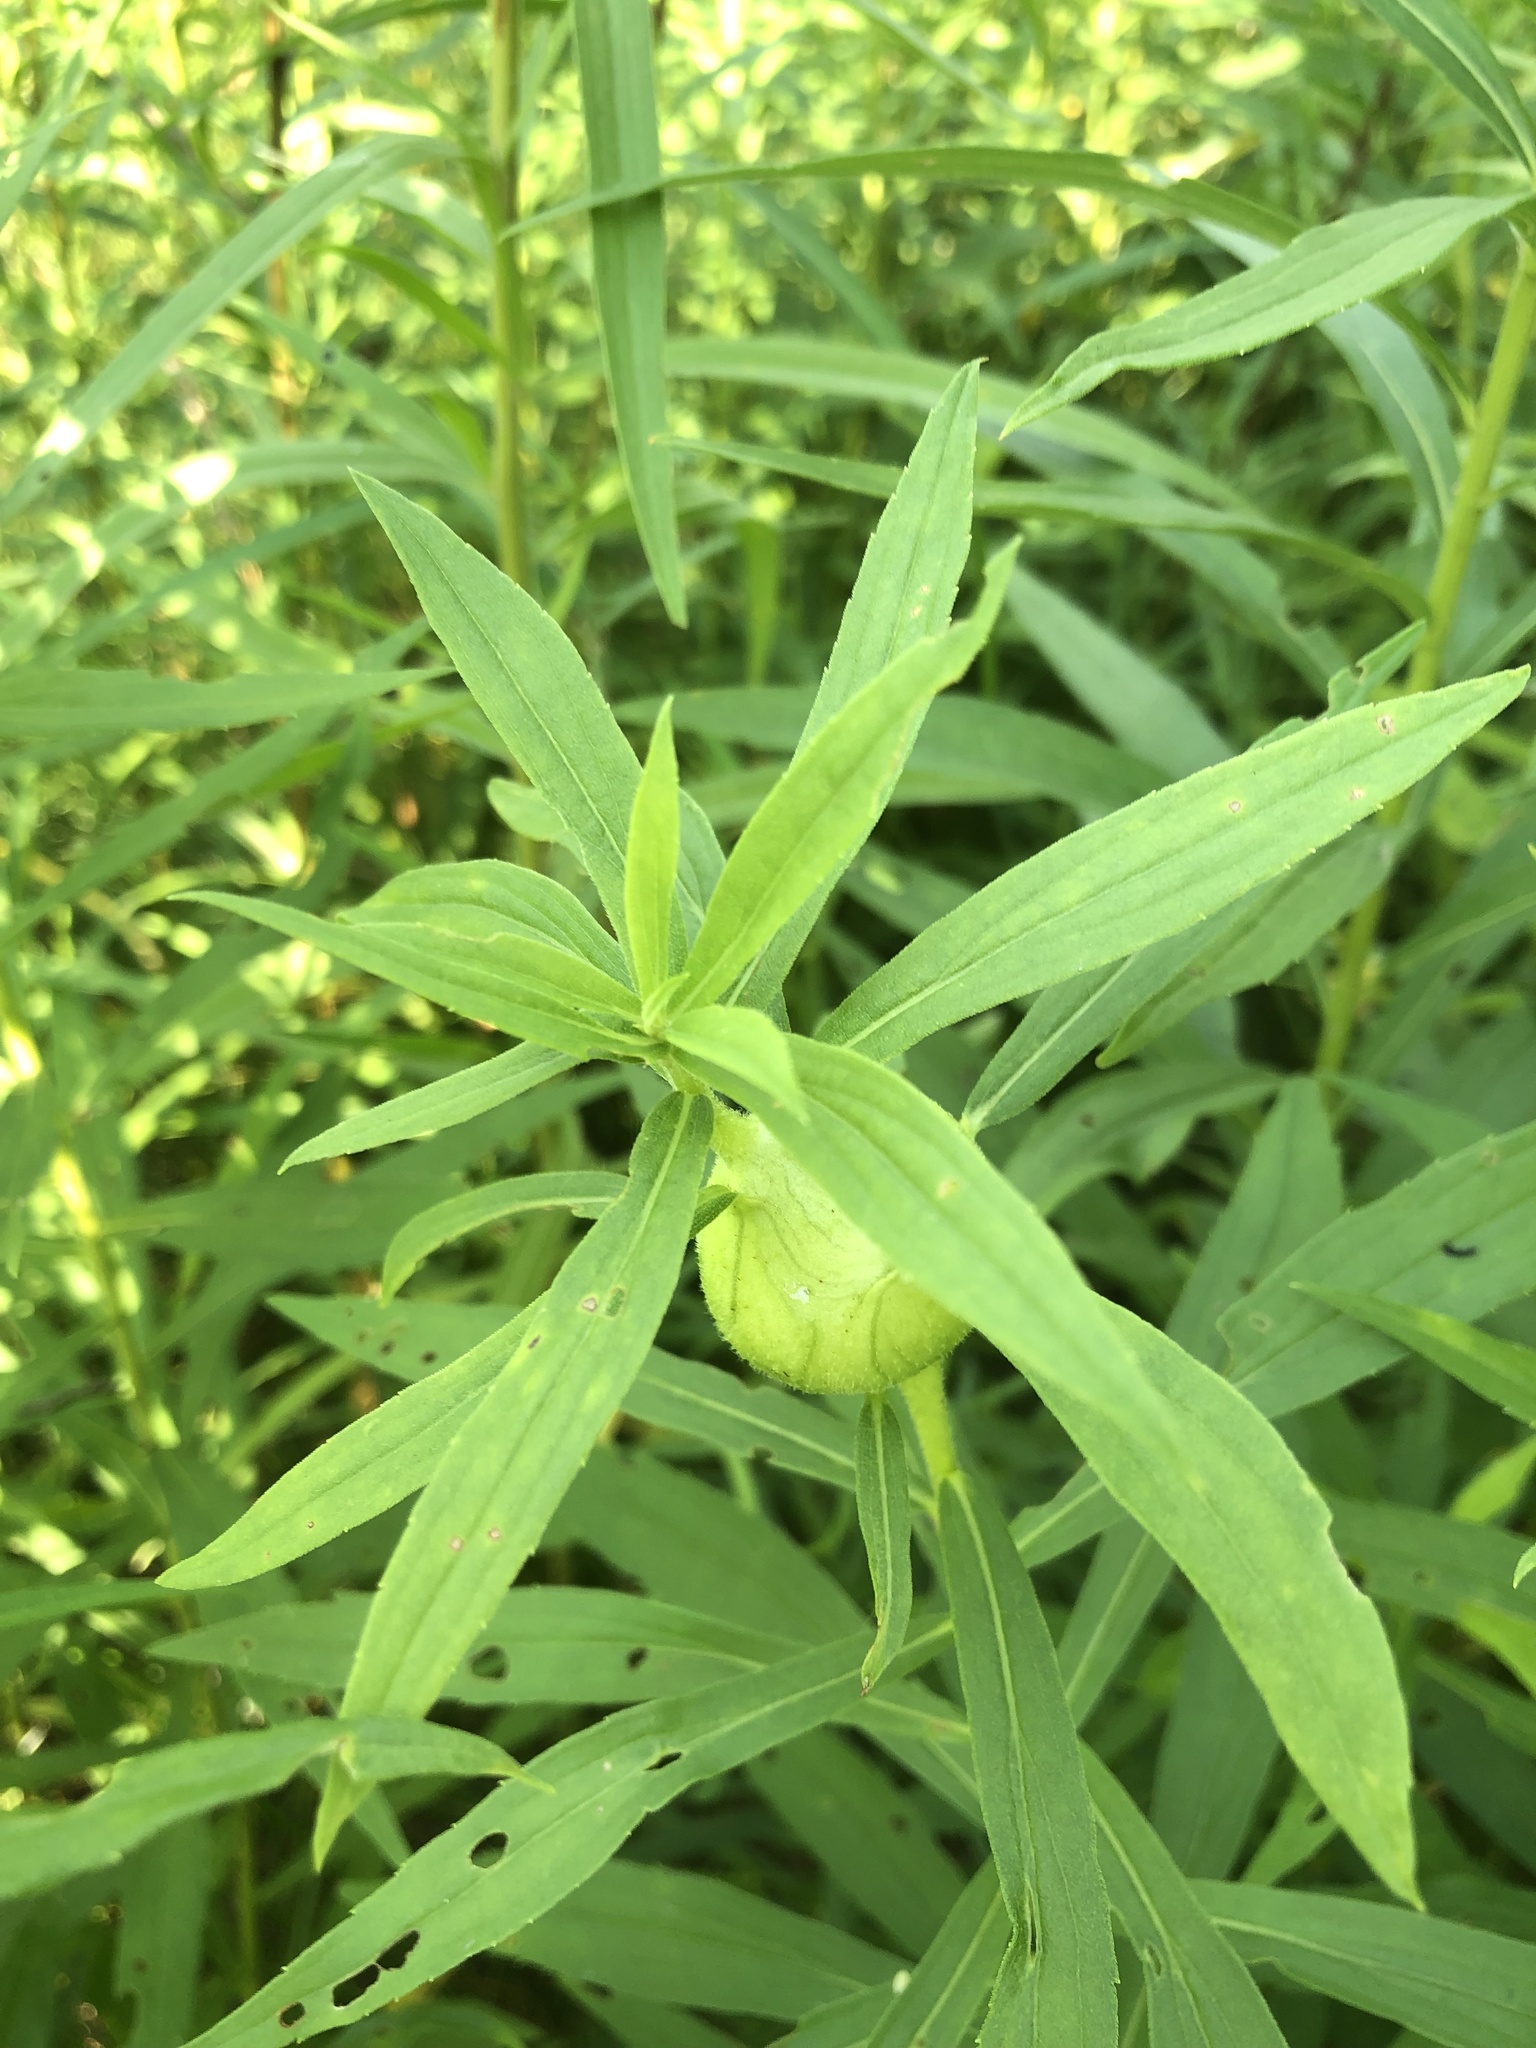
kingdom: Animalia
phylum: Arthropoda
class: Insecta
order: Diptera
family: Tephritidae
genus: Eurosta
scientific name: Eurosta solidaginis
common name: Goldenrod gall fly
